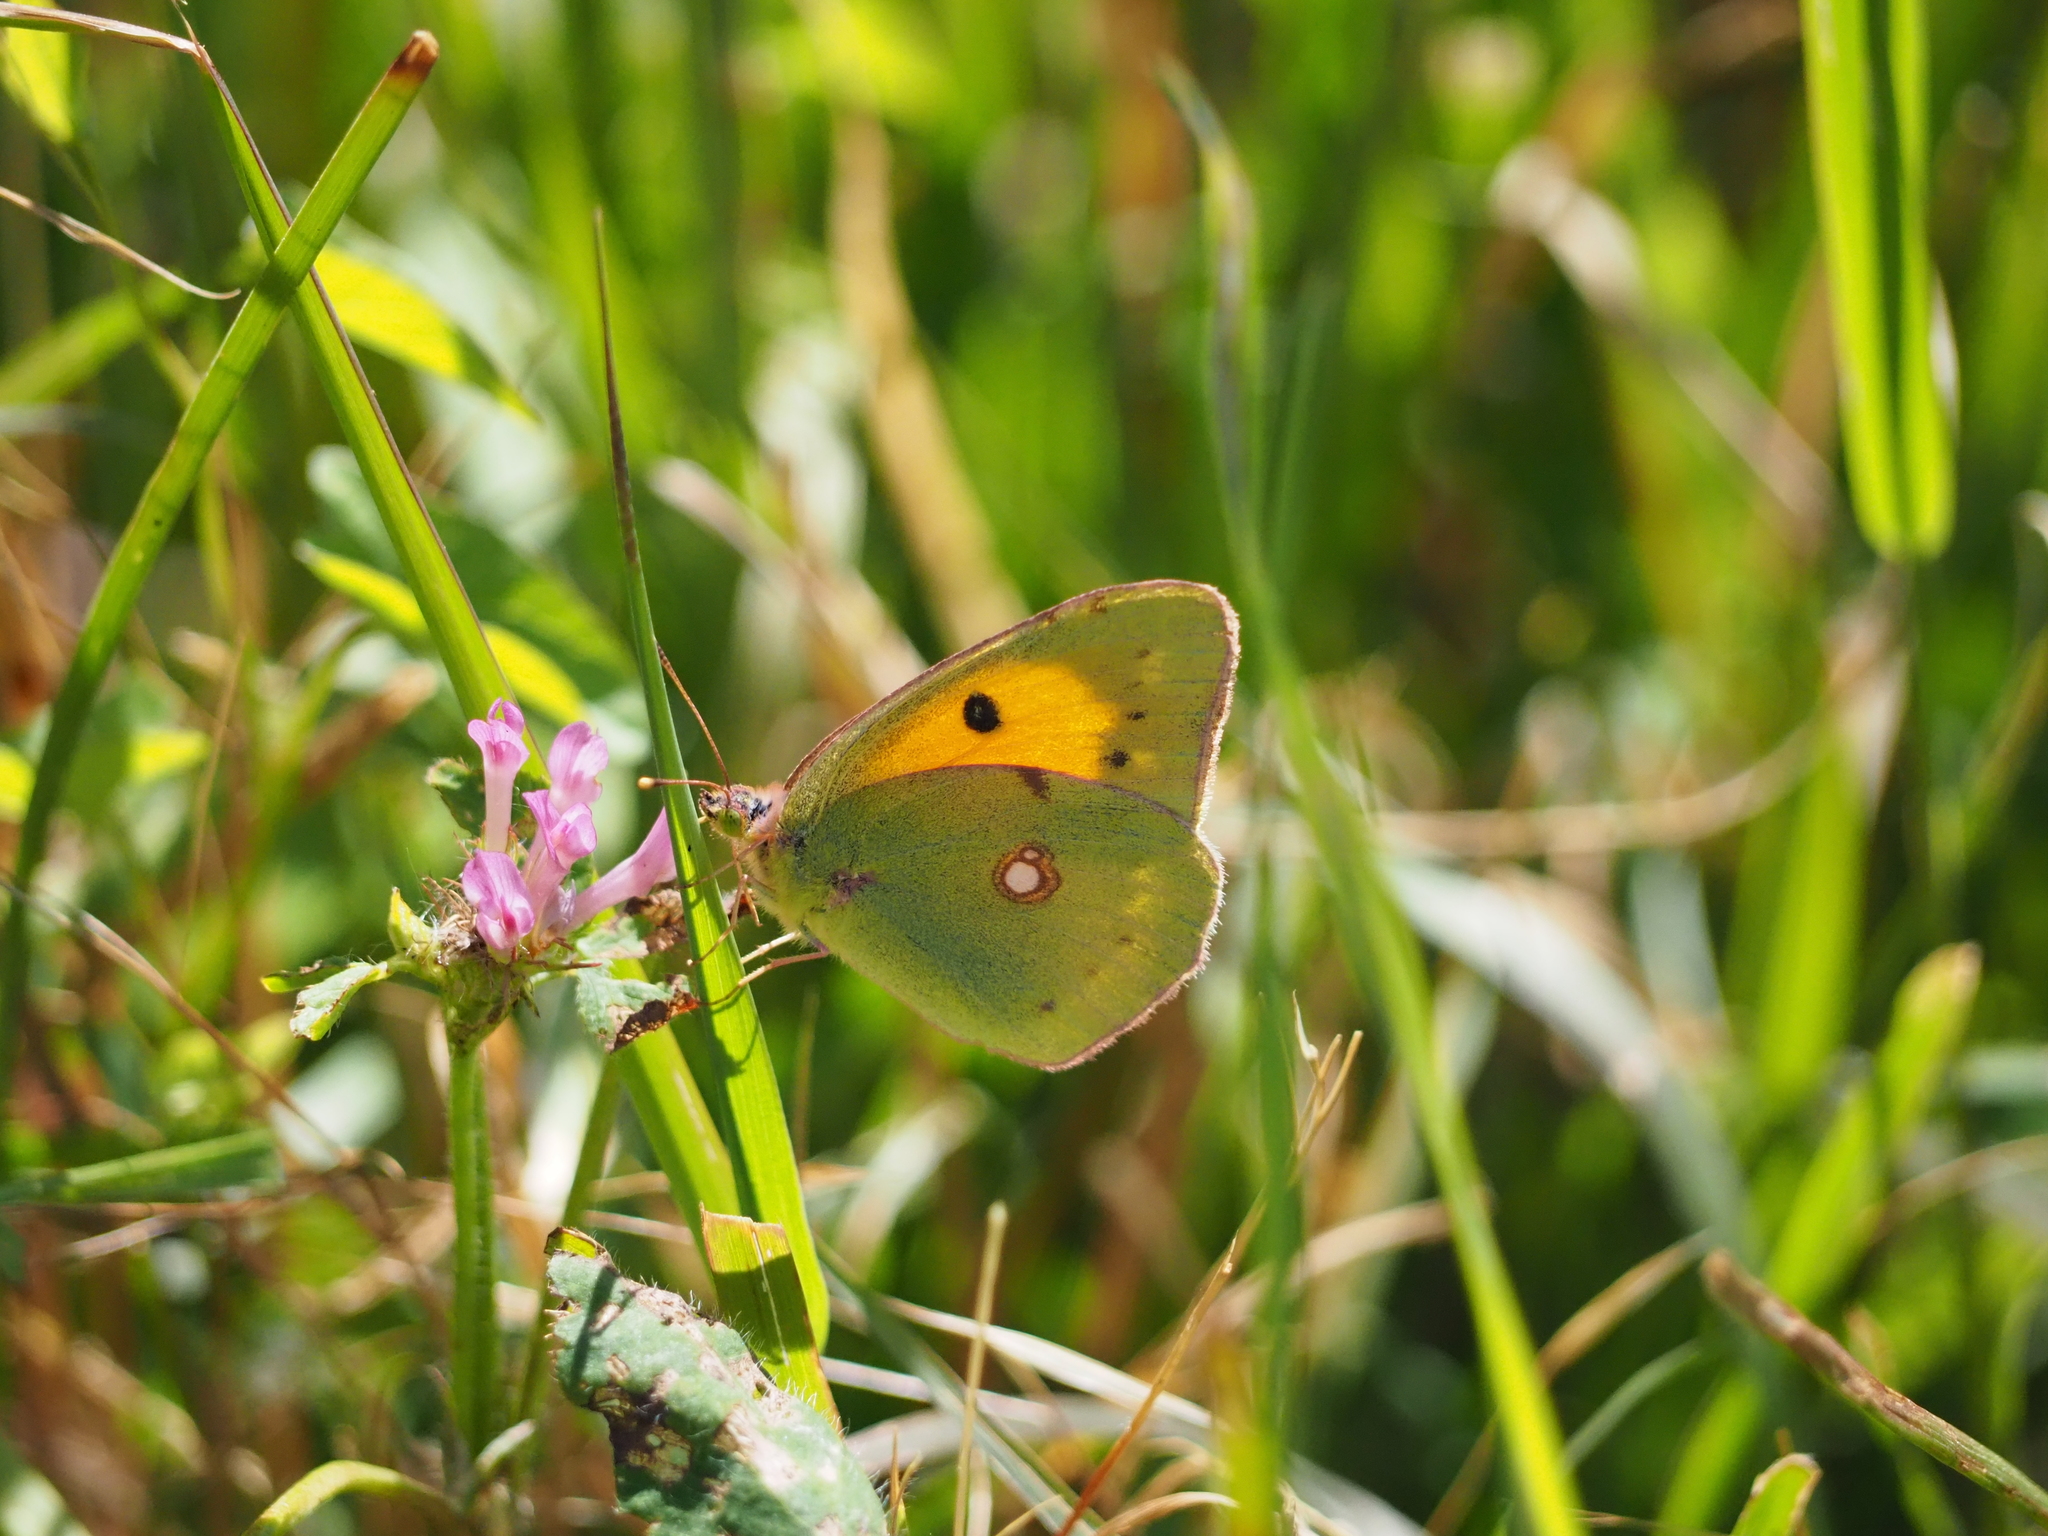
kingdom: Animalia
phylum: Arthropoda
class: Insecta
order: Lepidoptera
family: Pieridae
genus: Colias
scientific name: Colias croceus
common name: Clouded yellow
